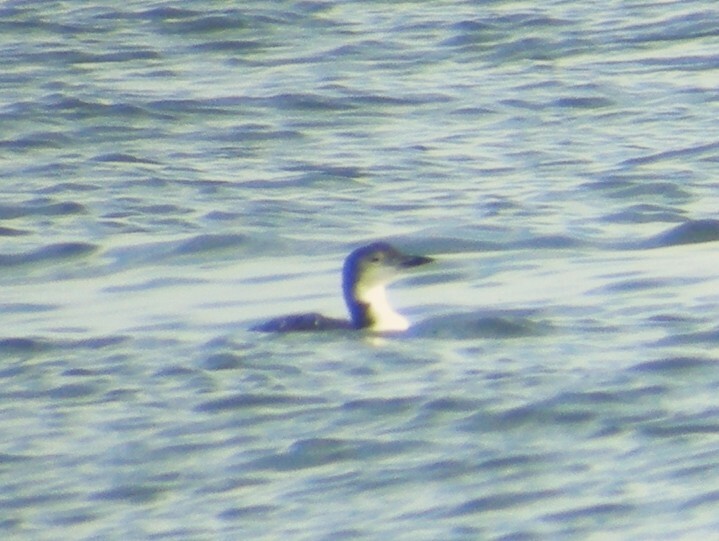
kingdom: Animalia
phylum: Chordata
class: Aves
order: Gaviiformes
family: Gaviidae
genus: Gavia
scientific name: Gavia immer
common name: Common loon
